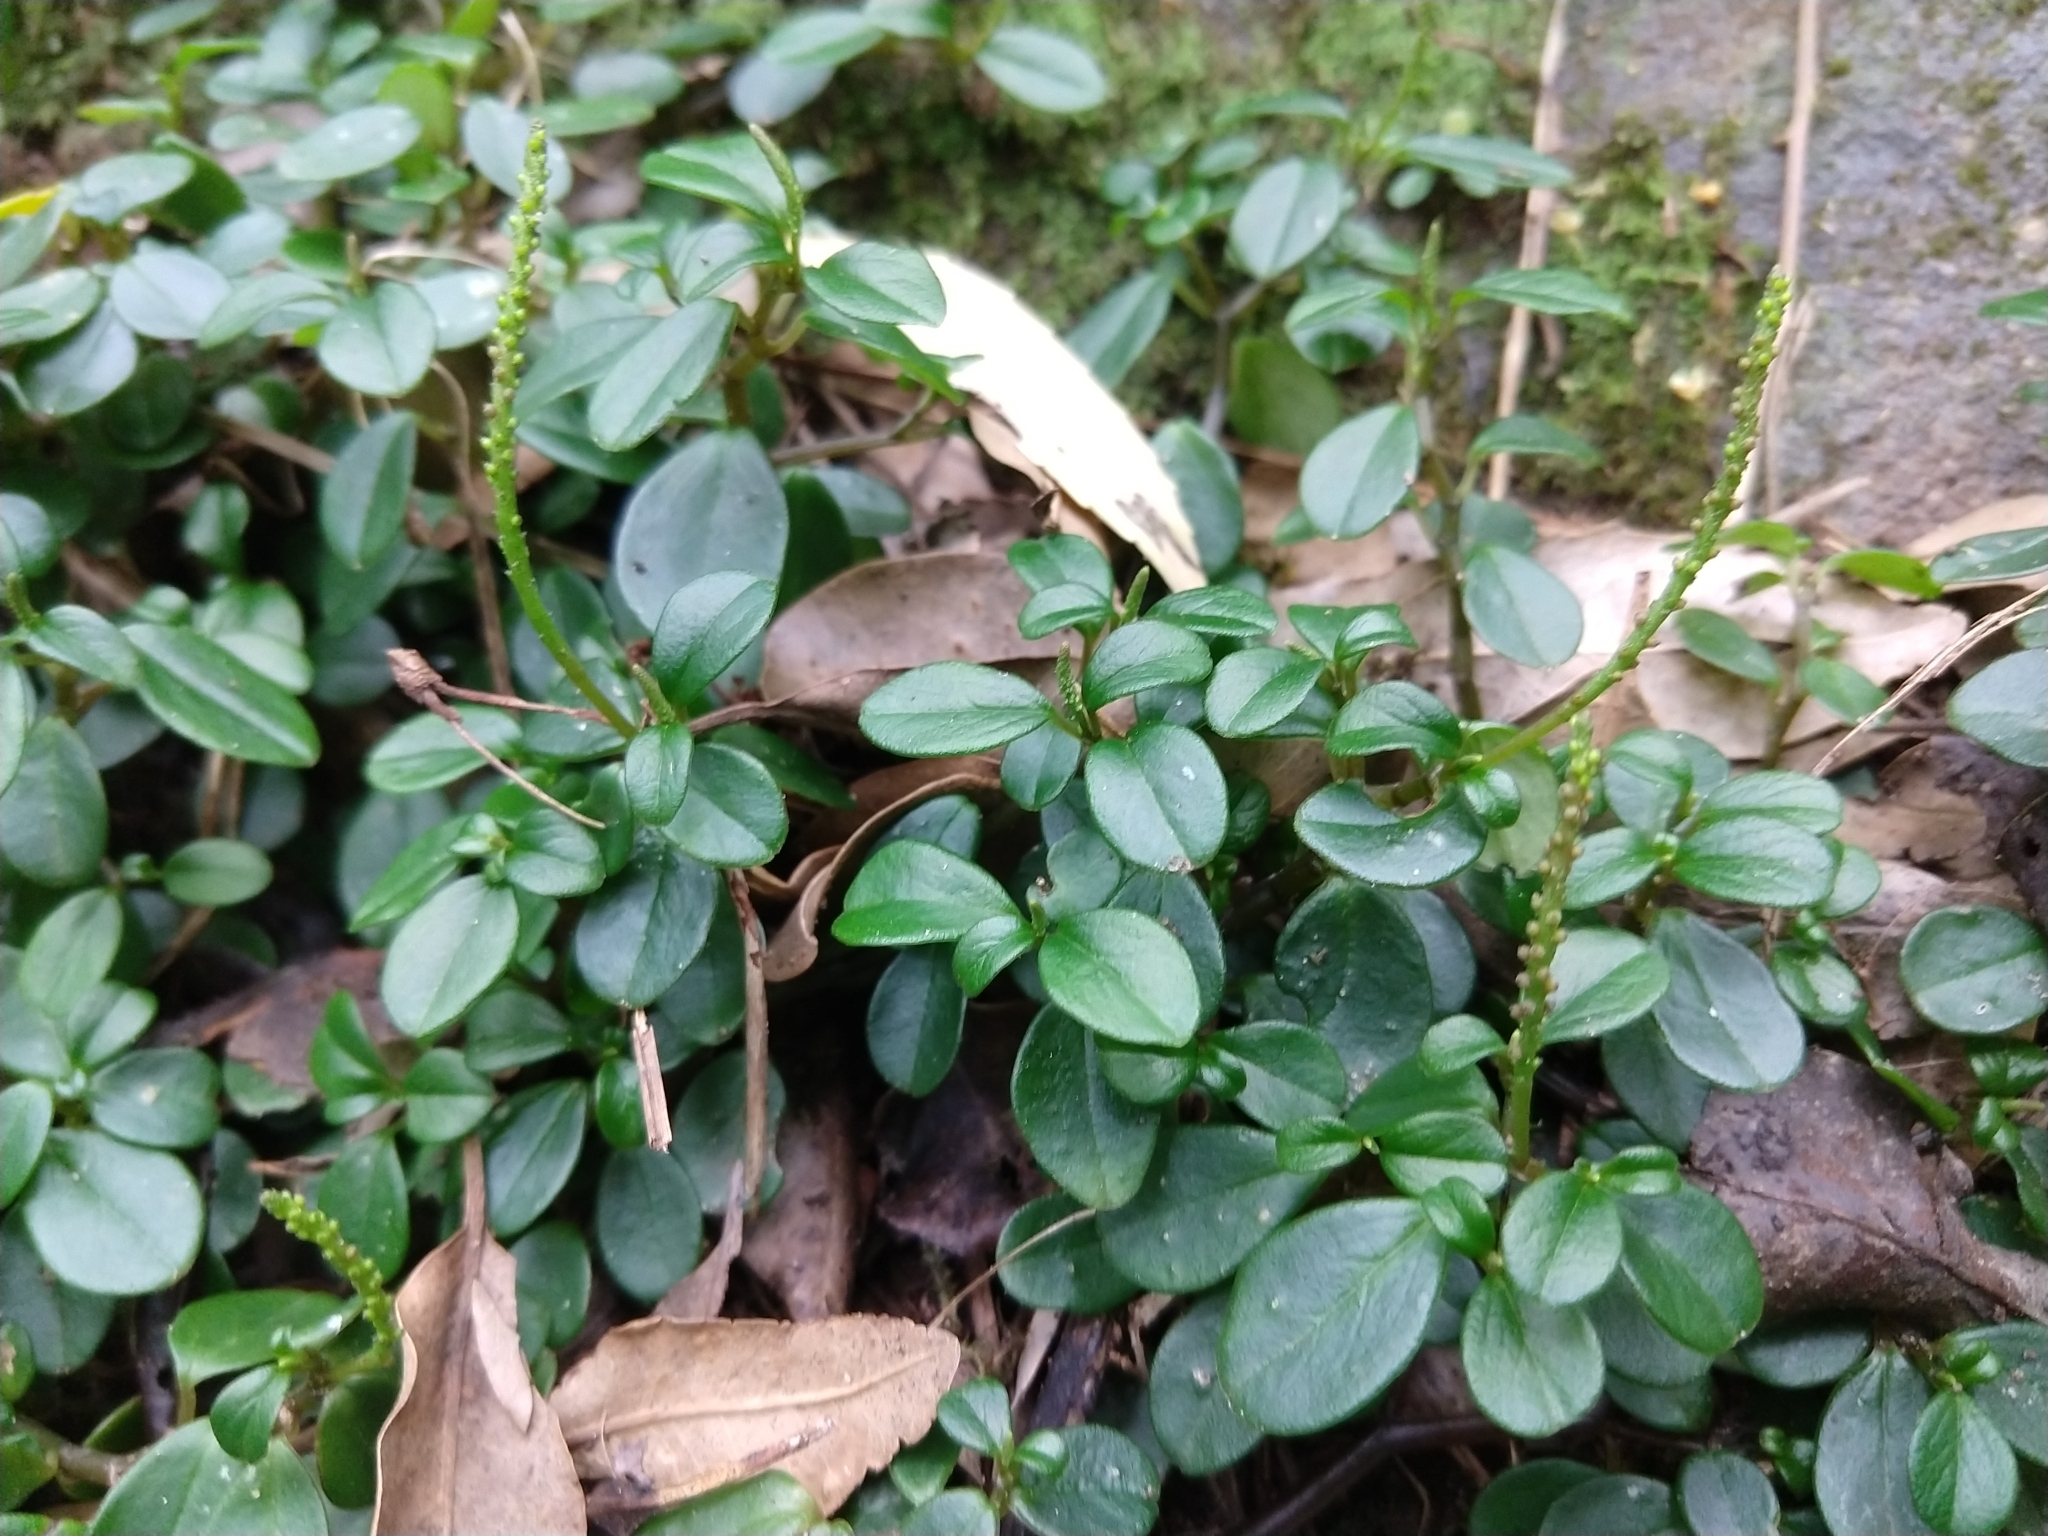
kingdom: Plantae
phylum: Tracheophyta
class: Magnoliopsida
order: Piperales
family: Piperaceae
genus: Peperomia
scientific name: Peperomia retusa
